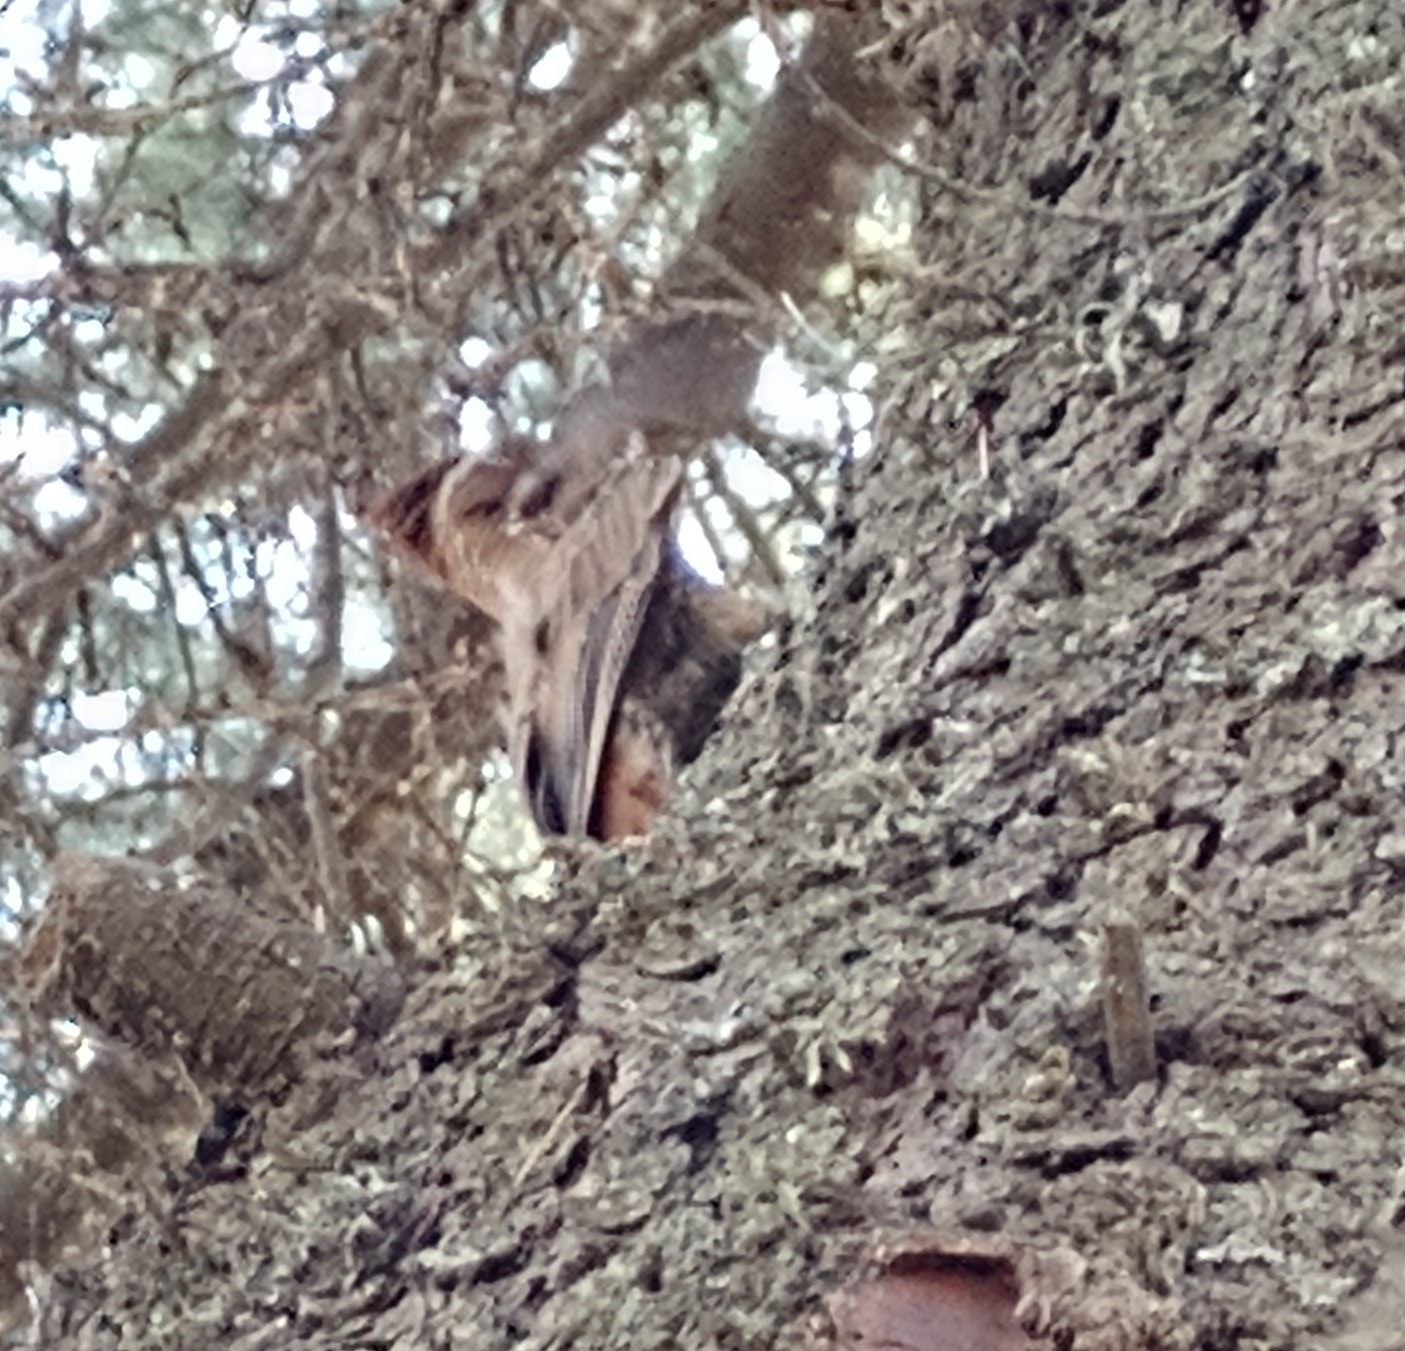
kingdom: Animalia
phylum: Chordata
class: Aves
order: Passeriformes
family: Furnariidae
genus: Drymornis
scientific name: Drymornis bridgesii
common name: Scimitar-billed woodcreeper
